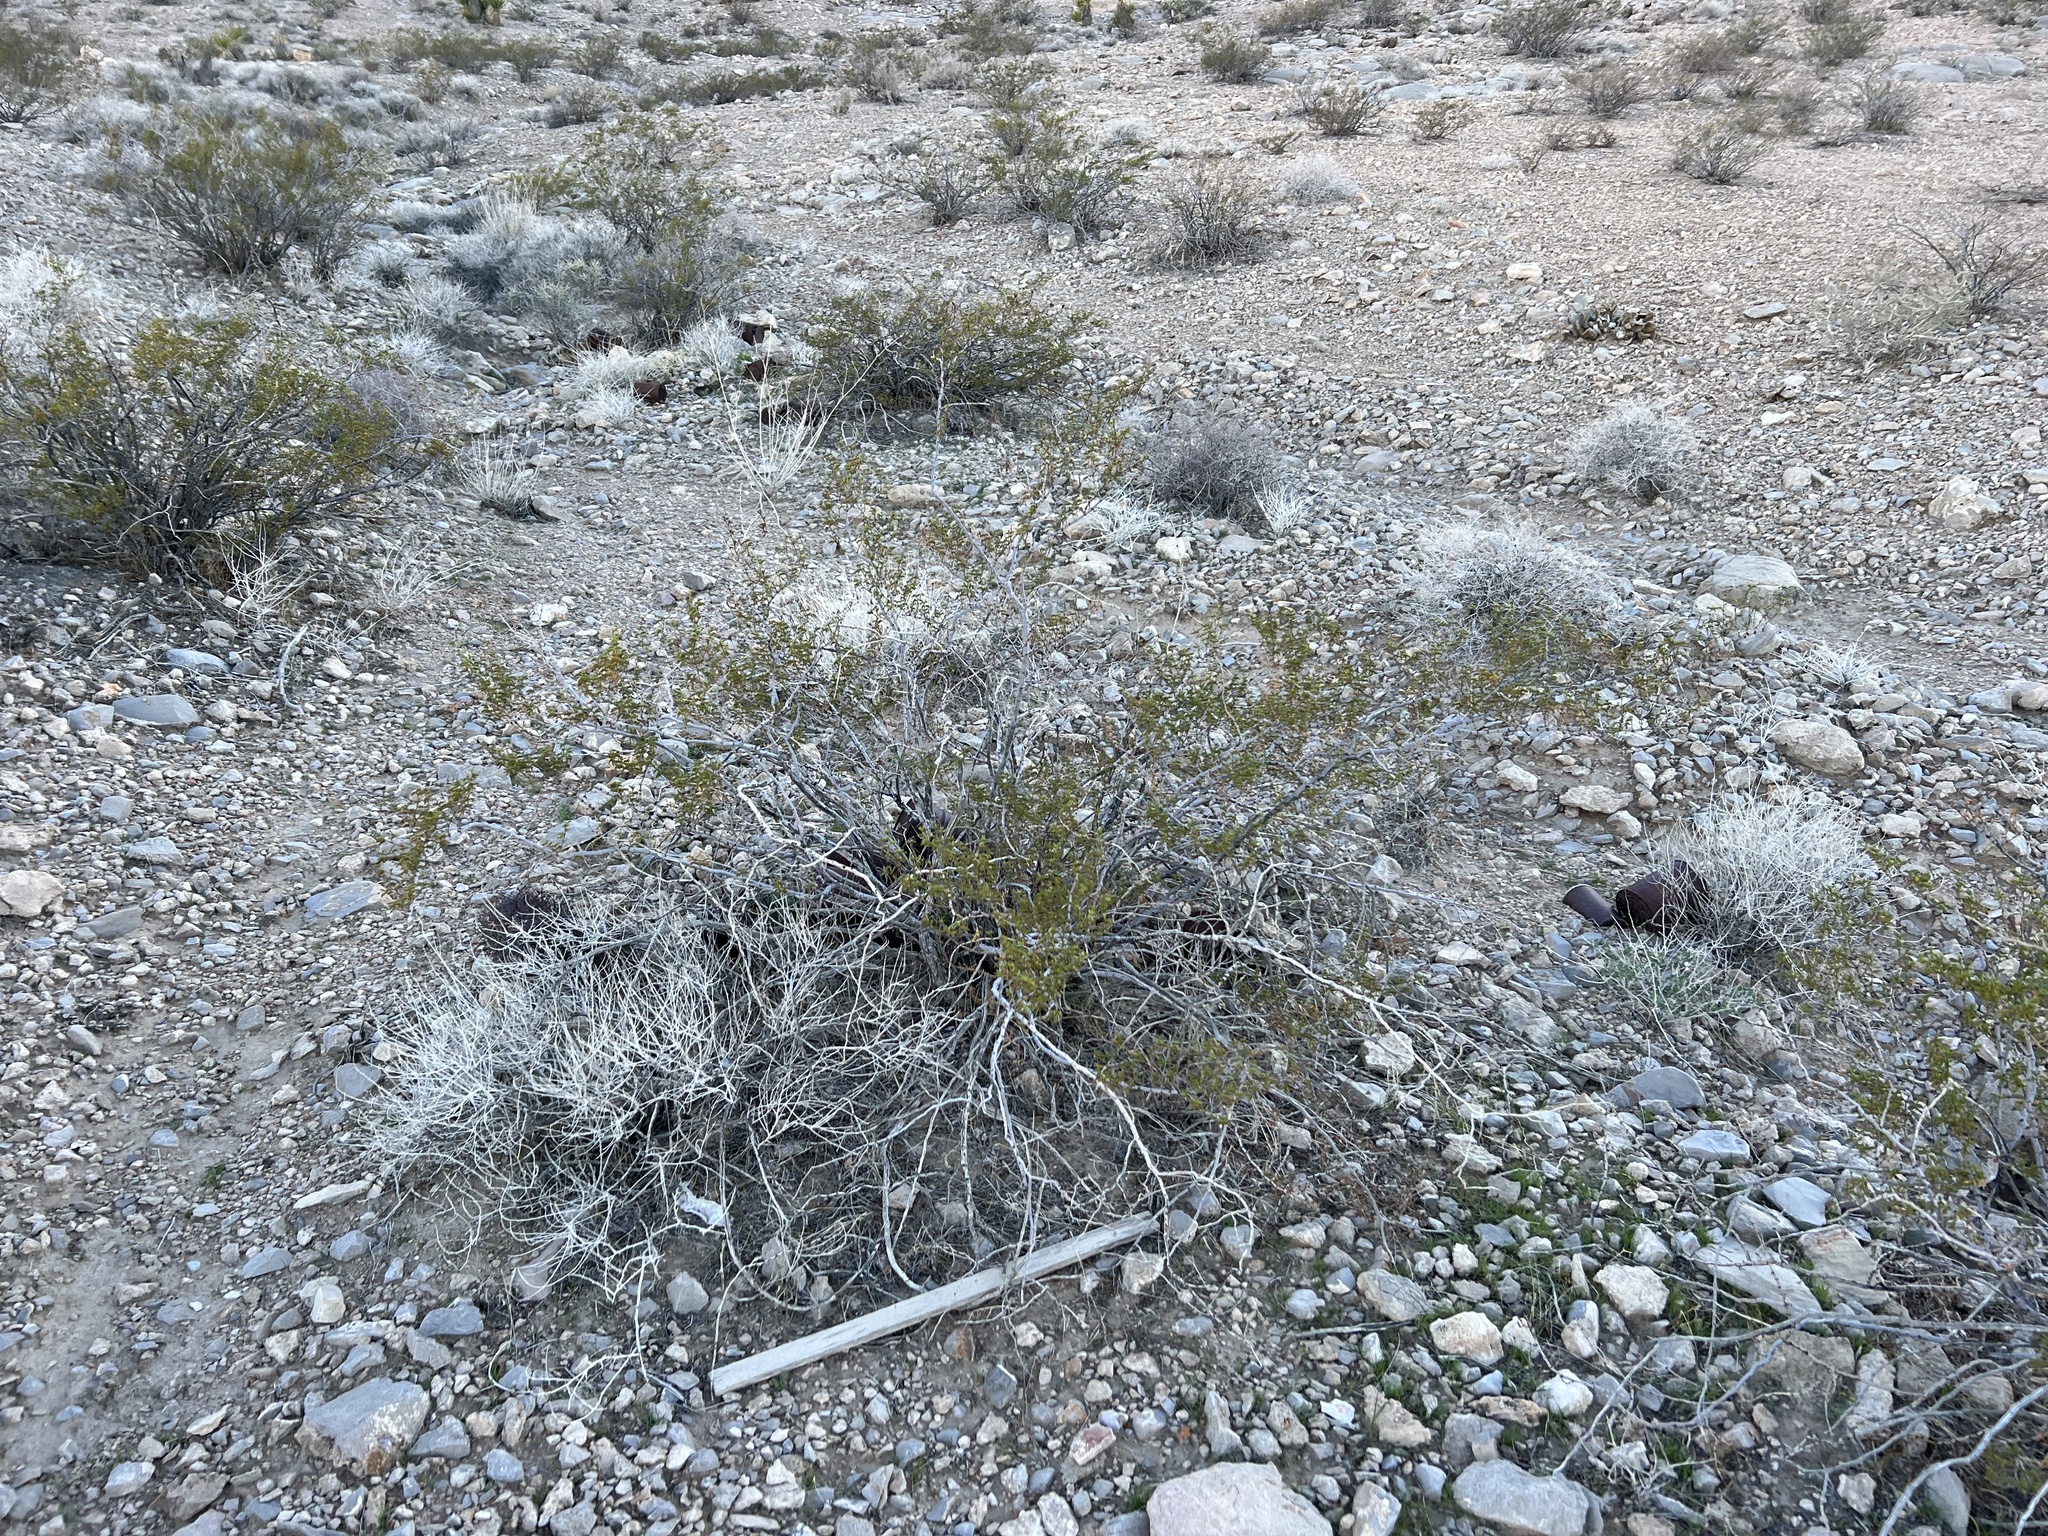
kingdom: Plantae
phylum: Tracheophyta
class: Magnoliopsida
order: Zygophyllales
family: Zygophyllaceae
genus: Larrea
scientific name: Larrea tridentata
